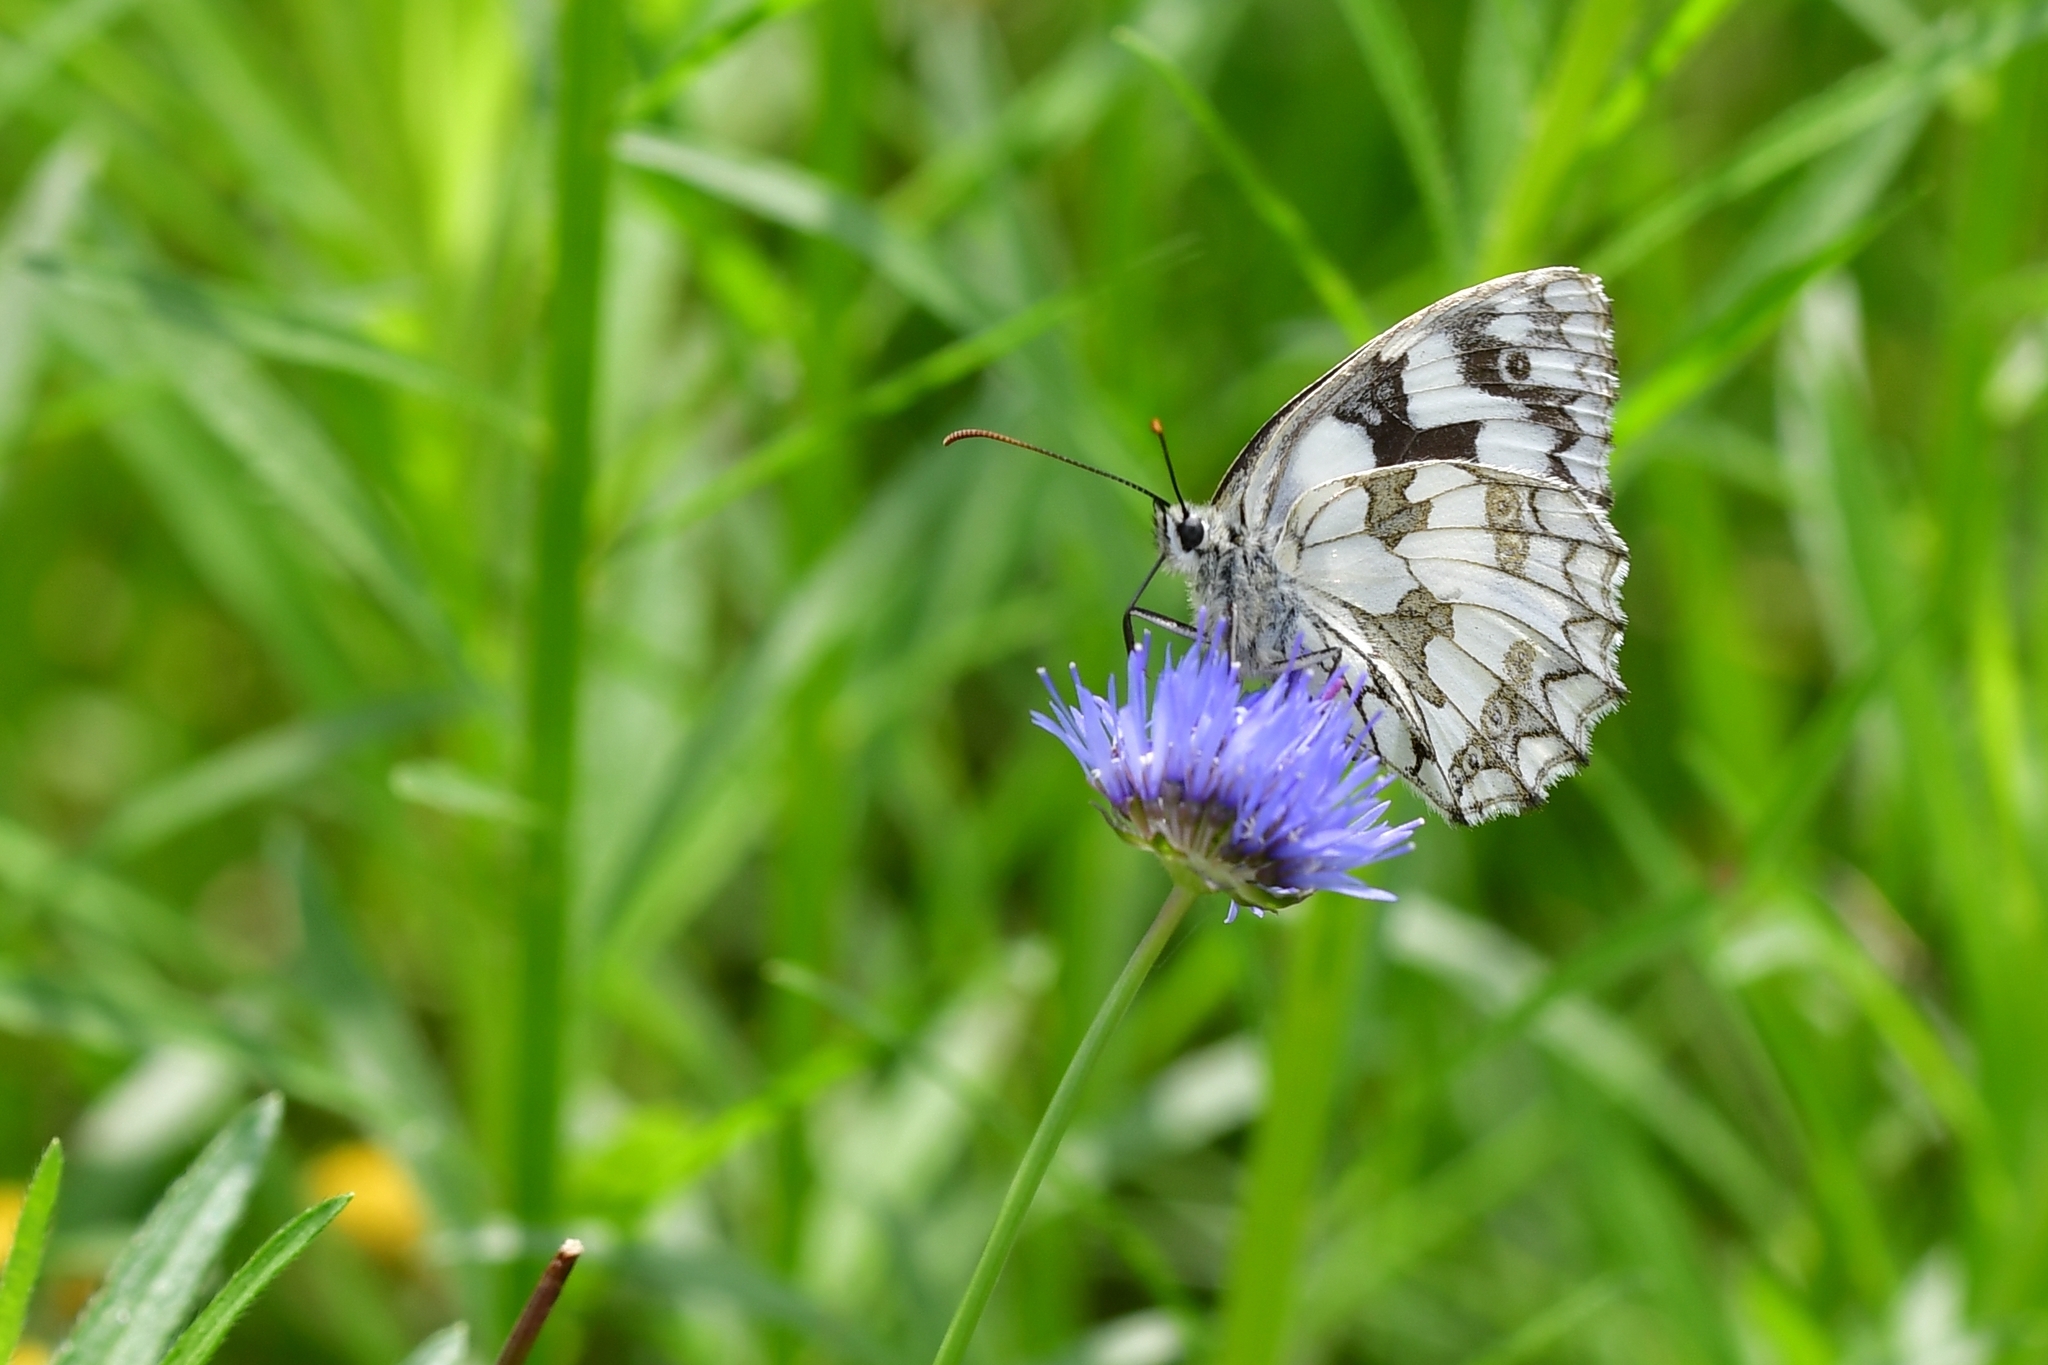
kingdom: Animalia
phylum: Arthropoda
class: Insecta
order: Lepidoptera
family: Nymphalidae
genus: Melanargia
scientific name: Melanargia galathea
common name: Marbled white
